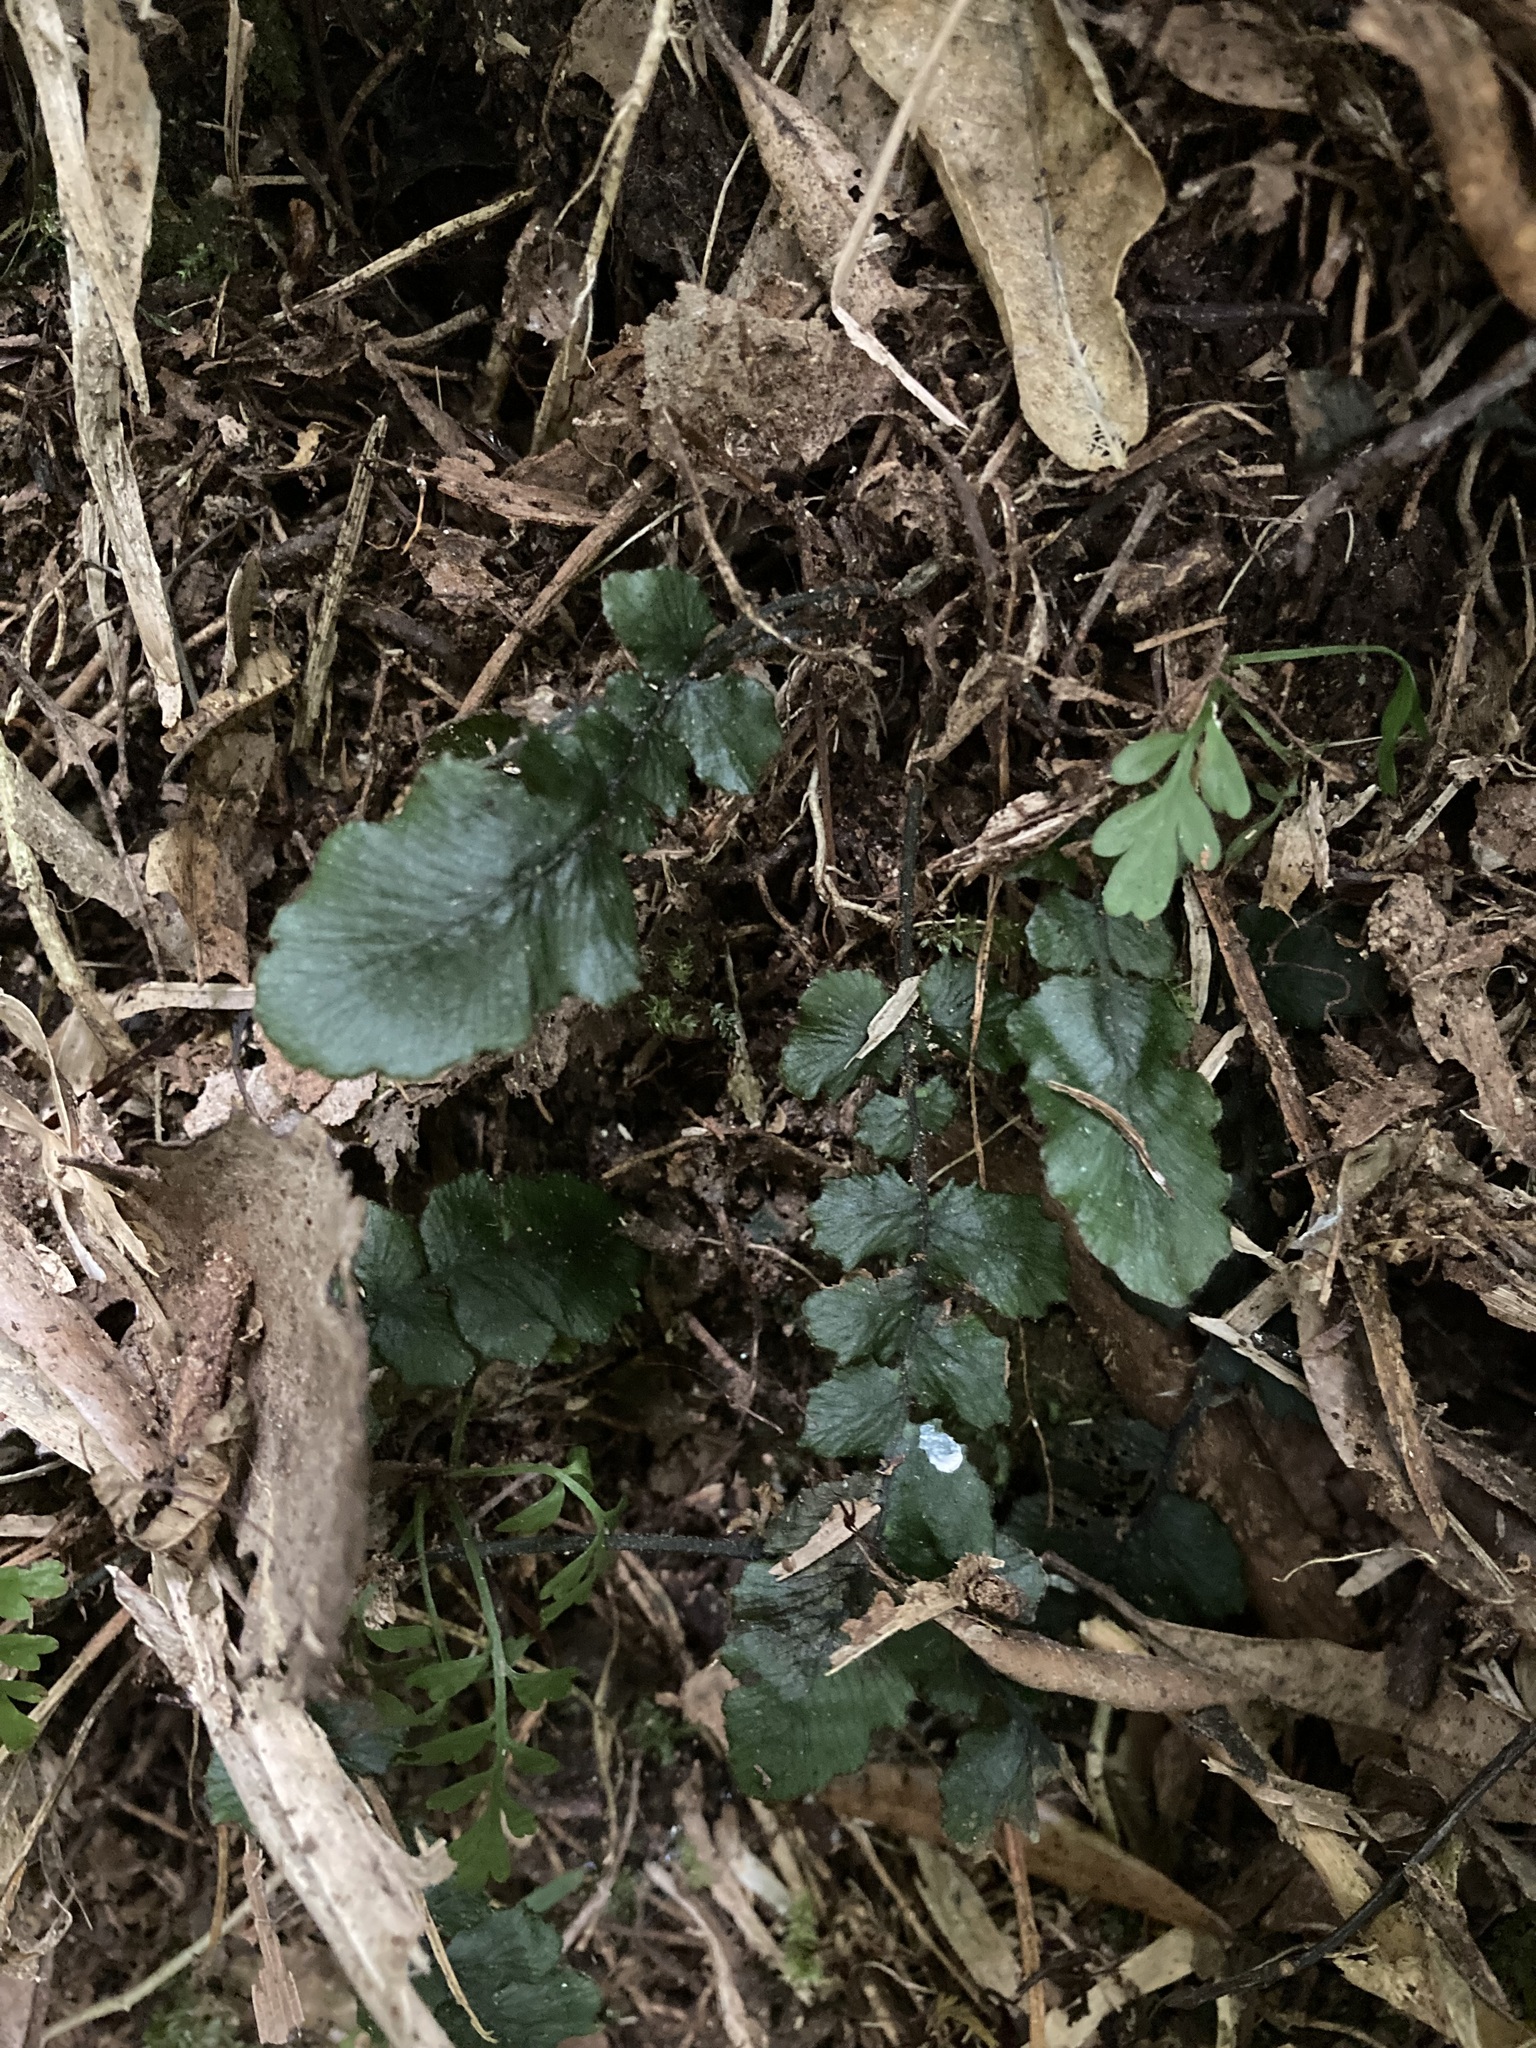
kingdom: Plantae
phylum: Tracheophyta
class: Polypodiopsida
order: Polypodiales
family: Blechnaceae
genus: Cranfillia
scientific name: Cranfillia nigra
